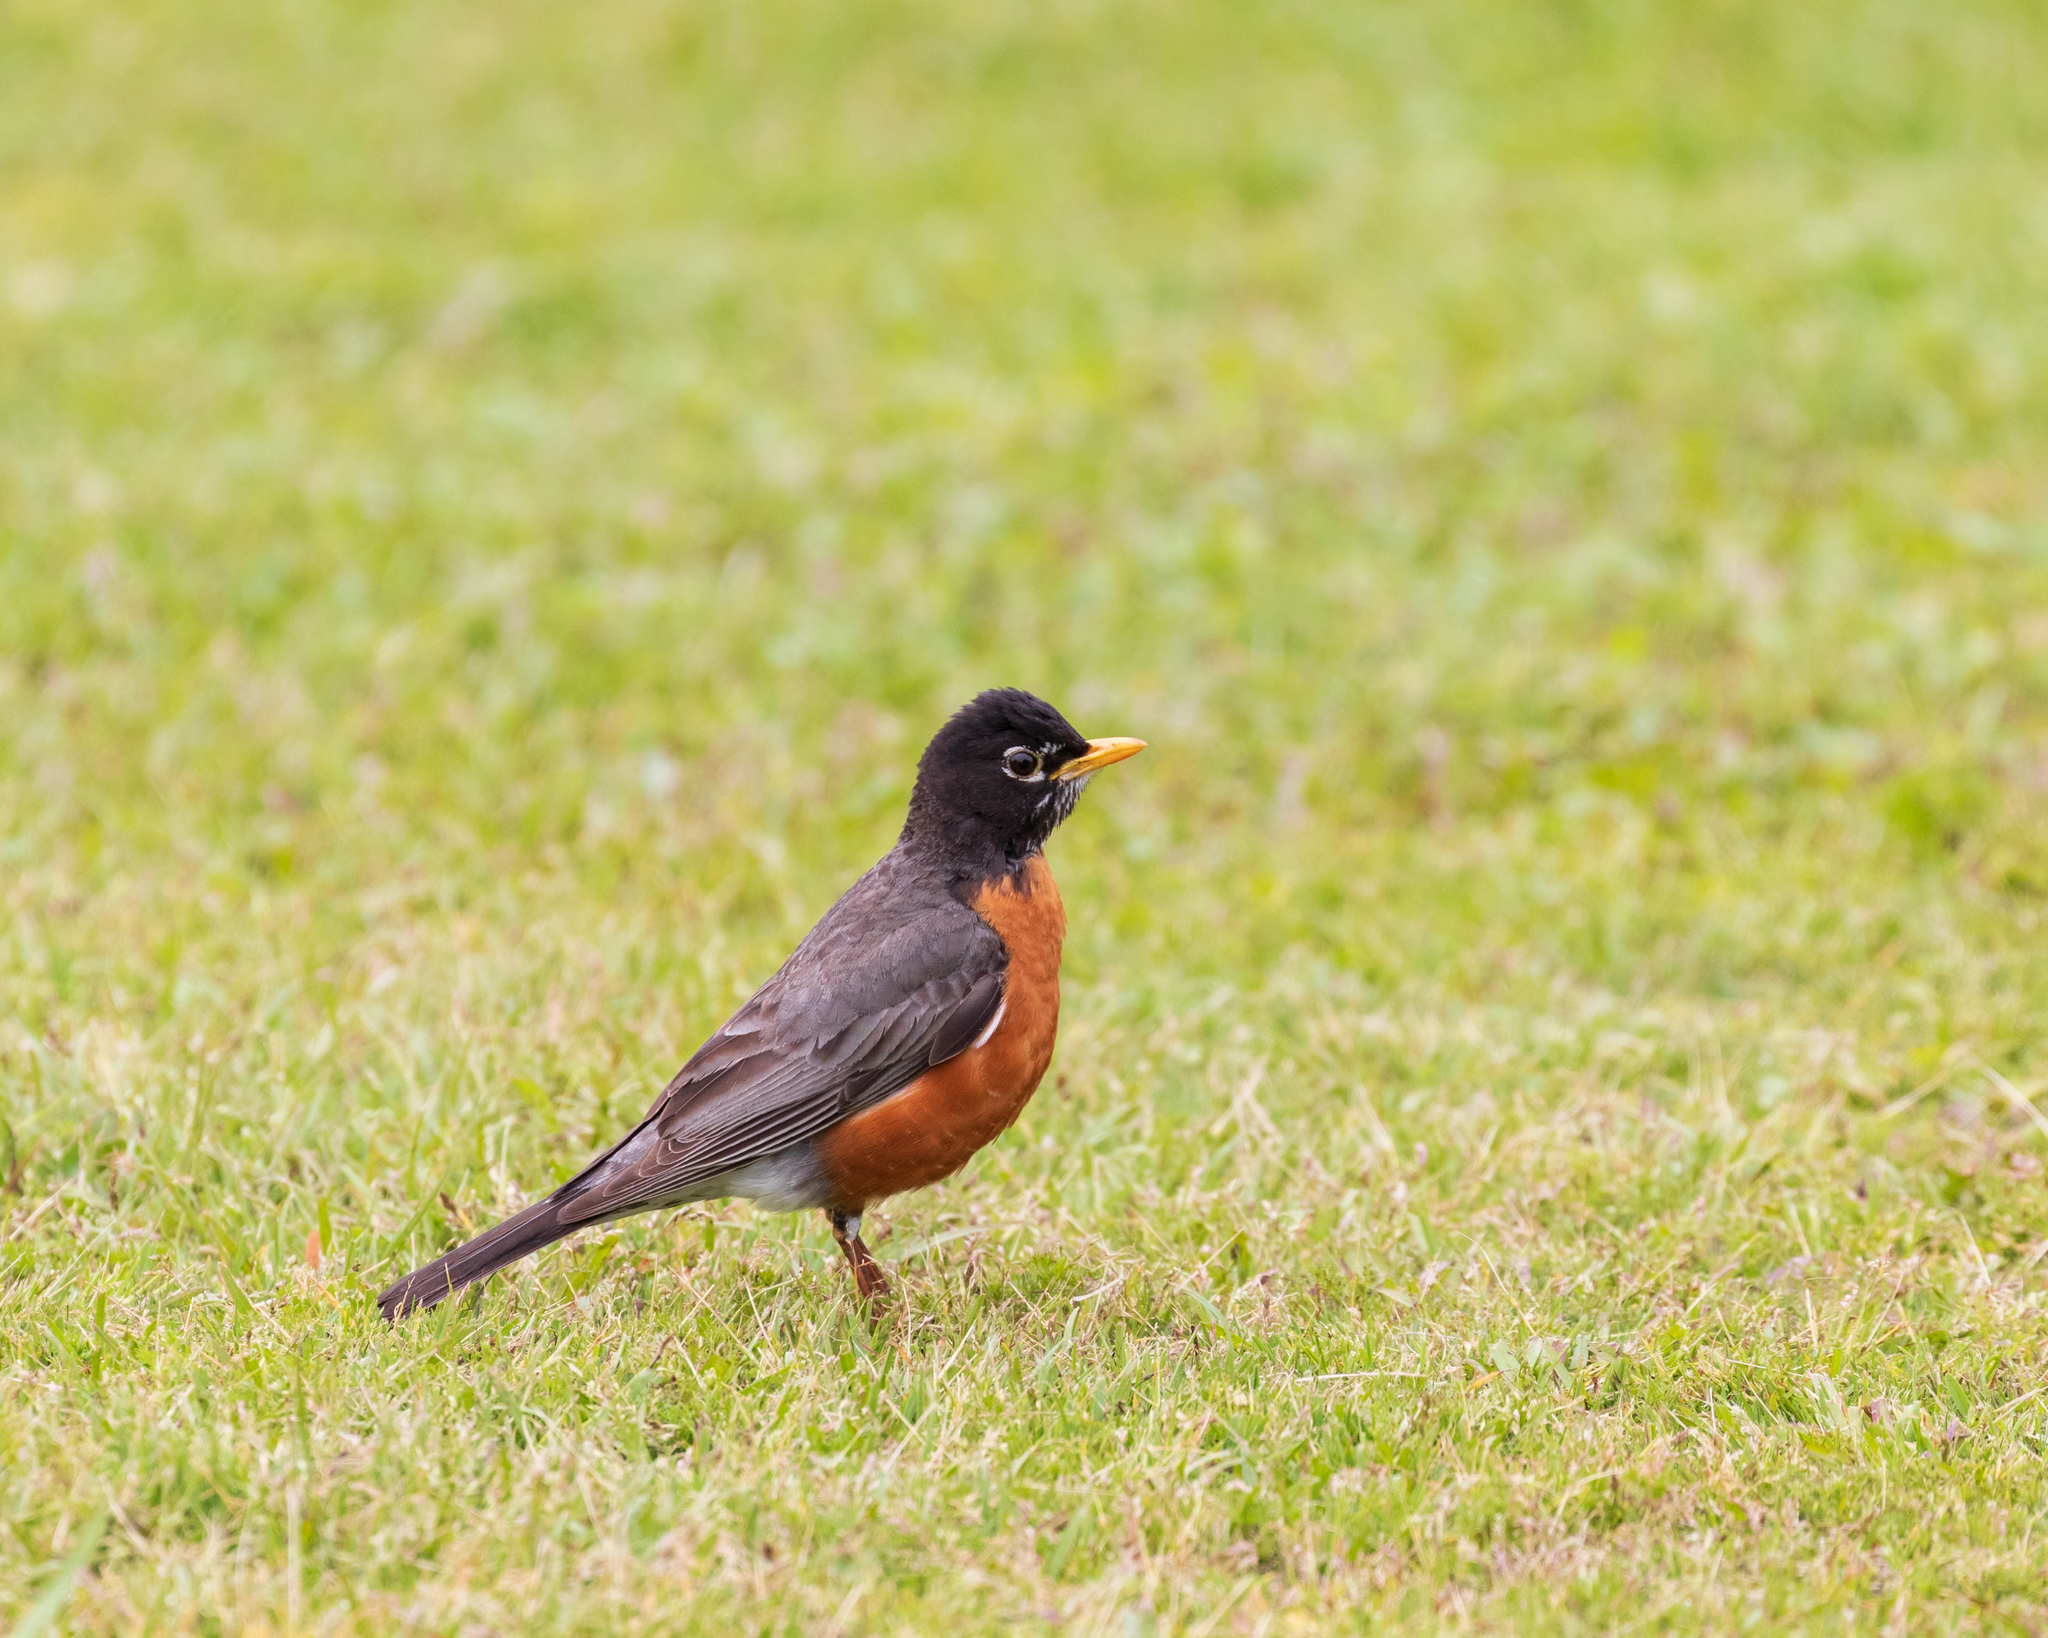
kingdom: Animalia
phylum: Chordata
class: Aves
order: Passeriformes
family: Turdidae
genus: Turdus
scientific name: Turdus migratorius
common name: American robin
